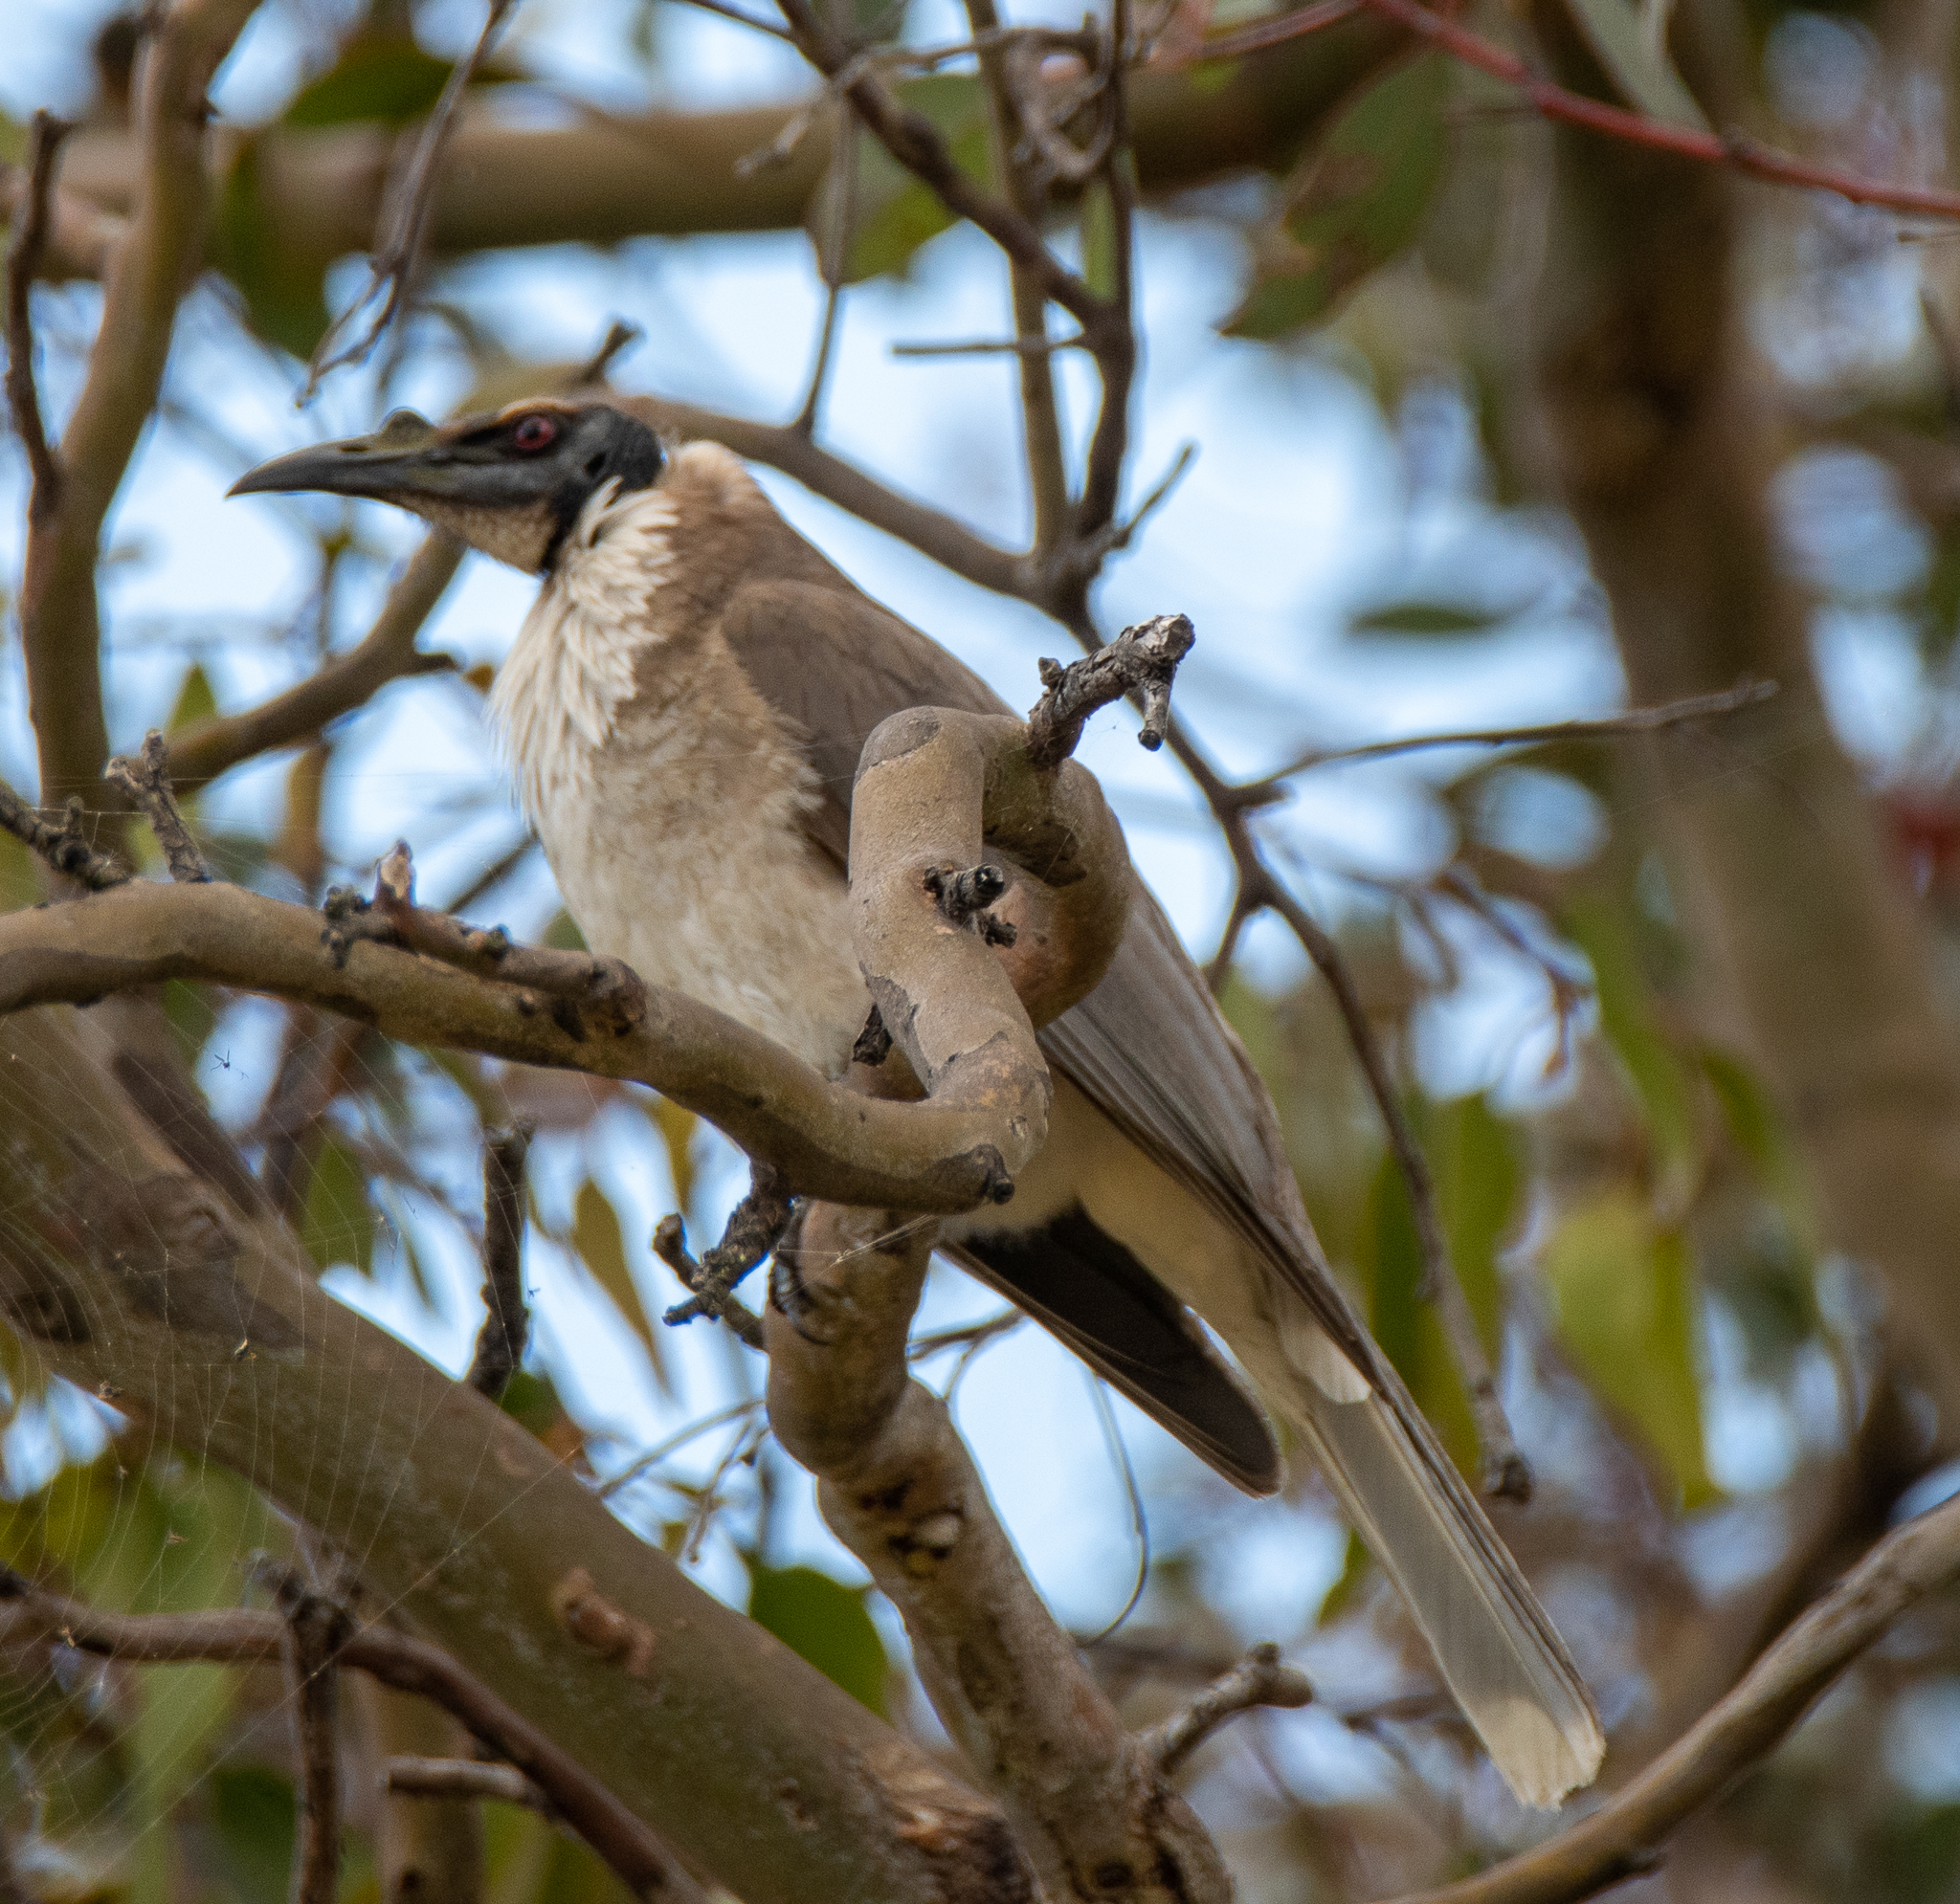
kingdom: Animalia
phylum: Chordata
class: Aves
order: Passeriformes
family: Meliphagidae
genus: Philemon
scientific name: Philemon corniculatus
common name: Noisy friarbird
